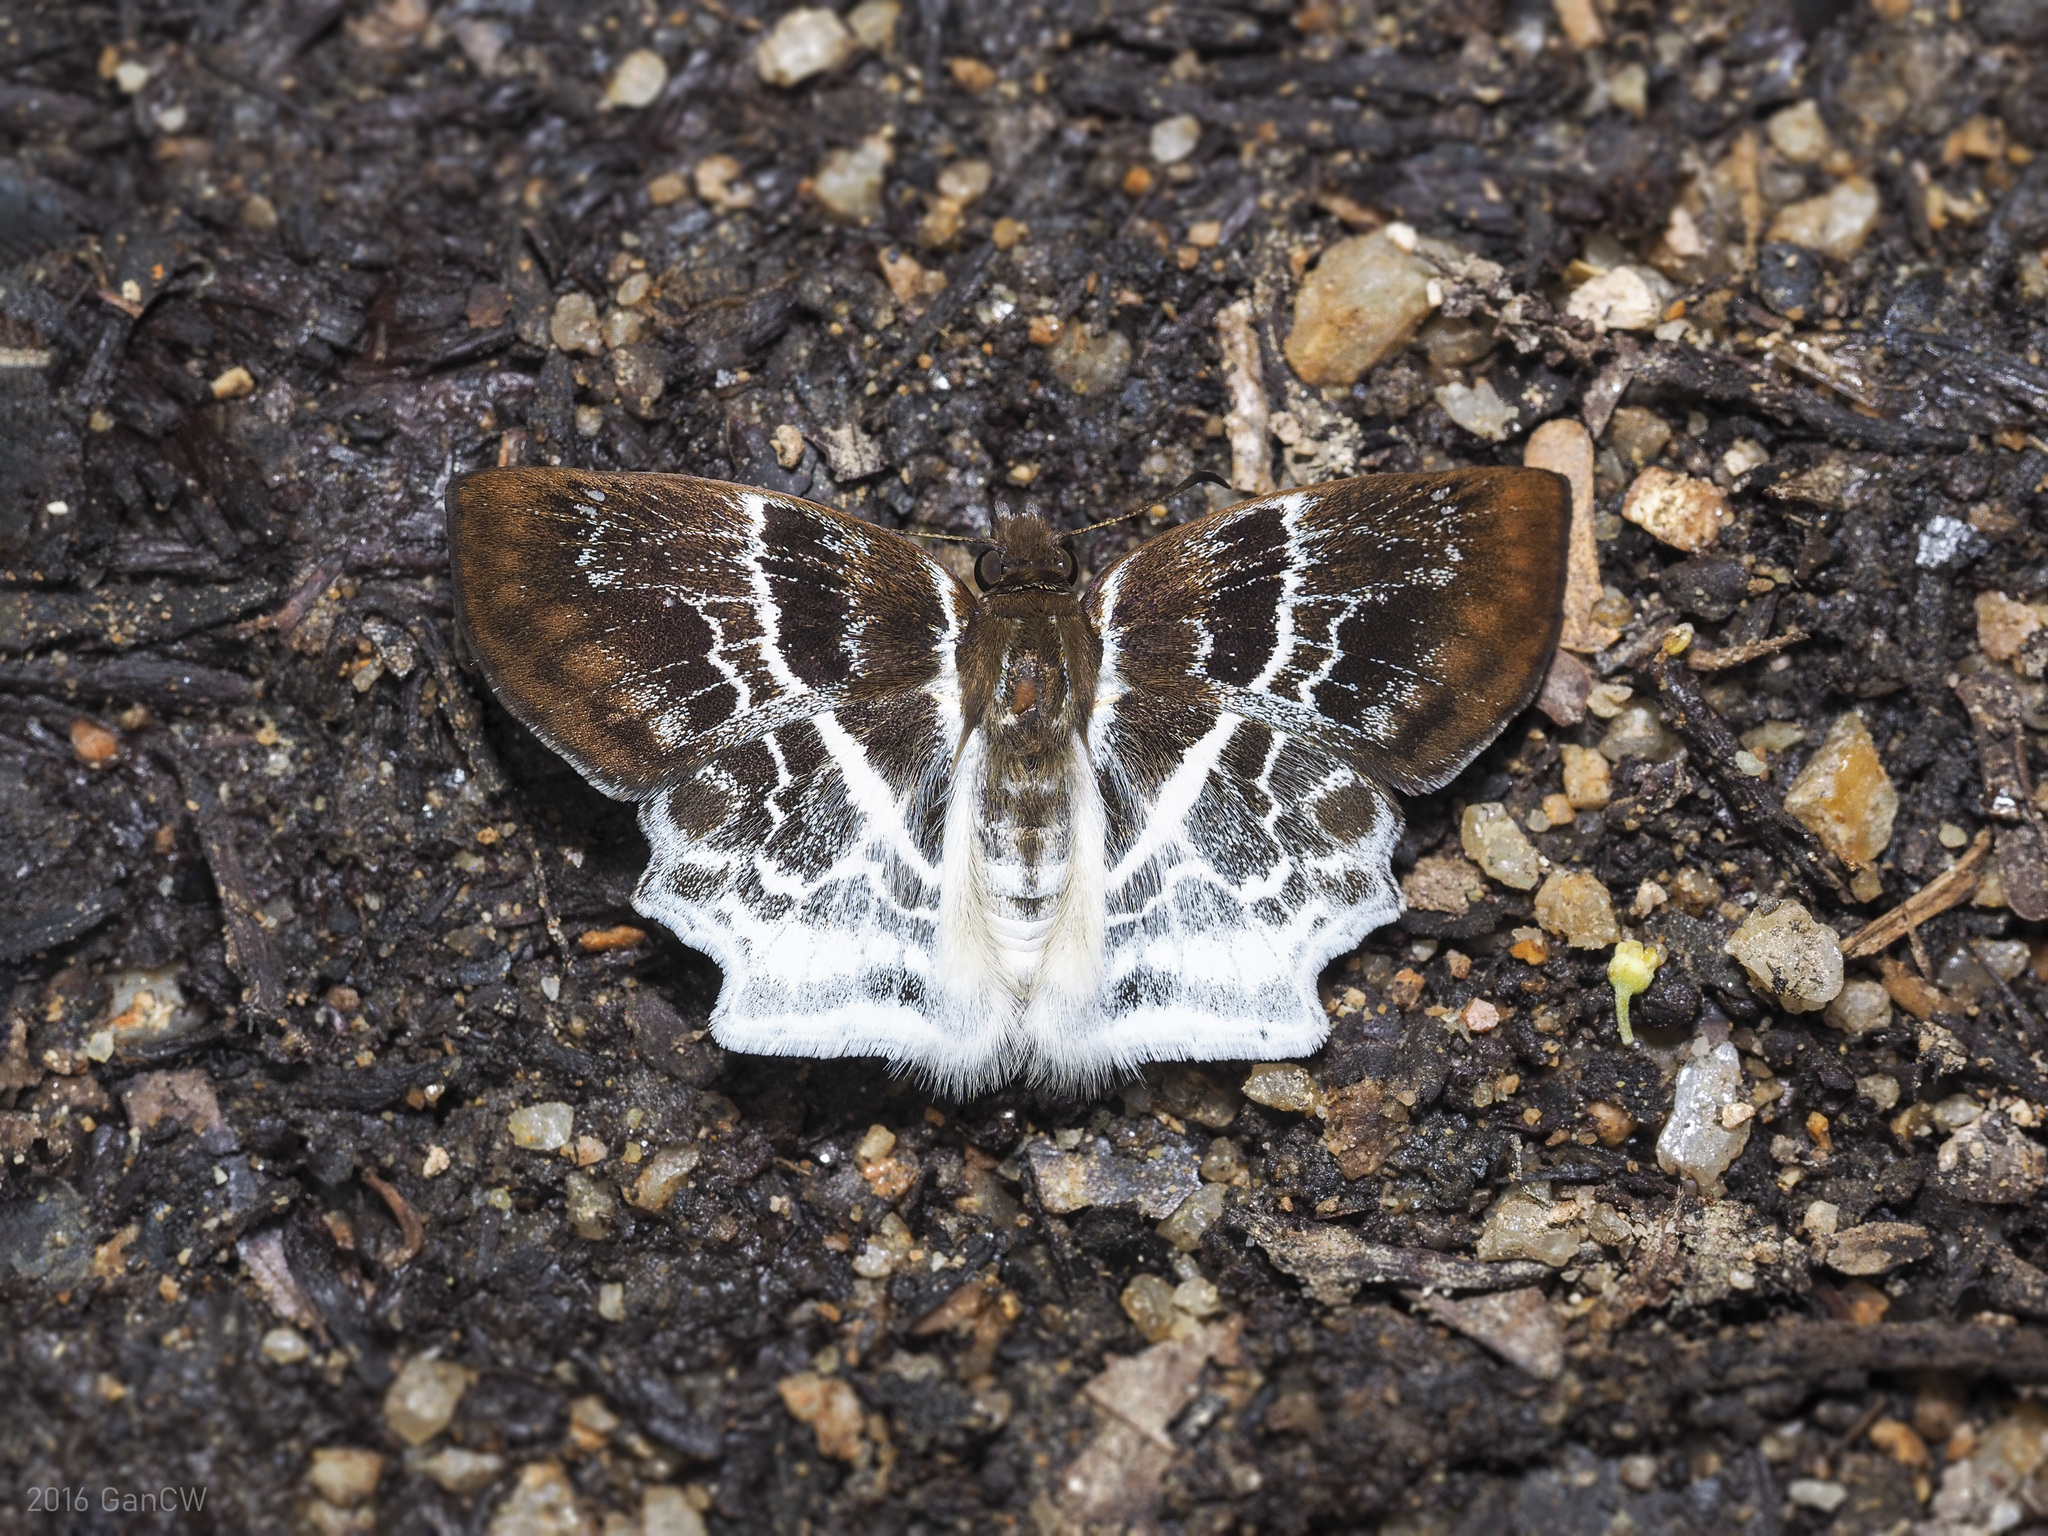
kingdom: Animalia
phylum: Arthropoda
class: Insecta
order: Lepidoptera
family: Hesperiidae
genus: Odontoptilum
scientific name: Odontoptilum pygela
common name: Banded angle
